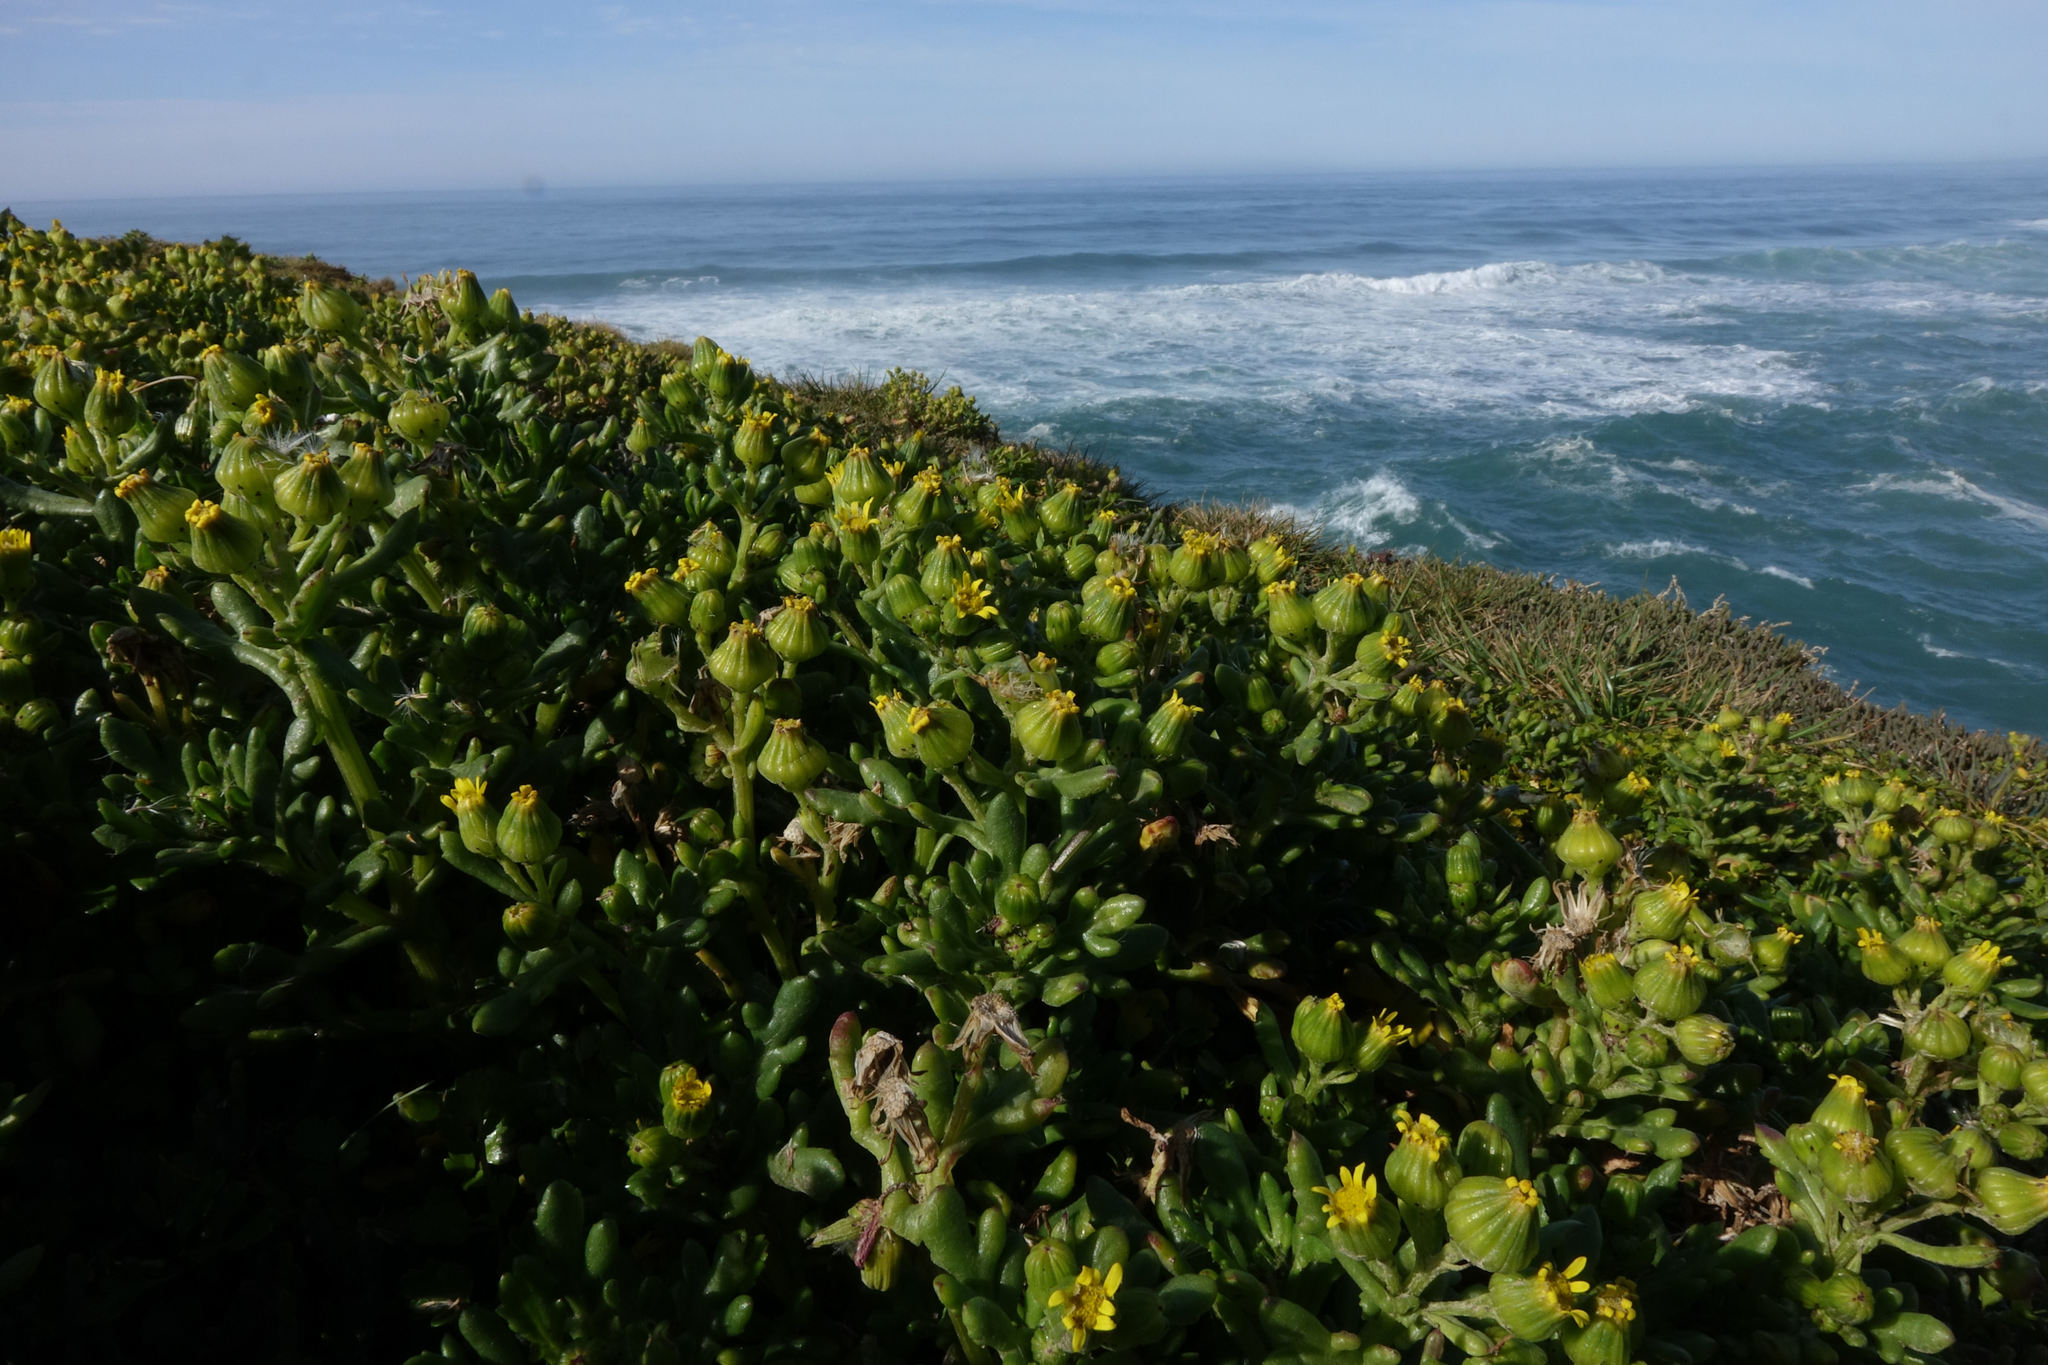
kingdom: Plantae
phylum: Tracheophyta
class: Magnoliopsida
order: Asterales
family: Asteraceae
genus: Senecio
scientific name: Senecio carnosulus
